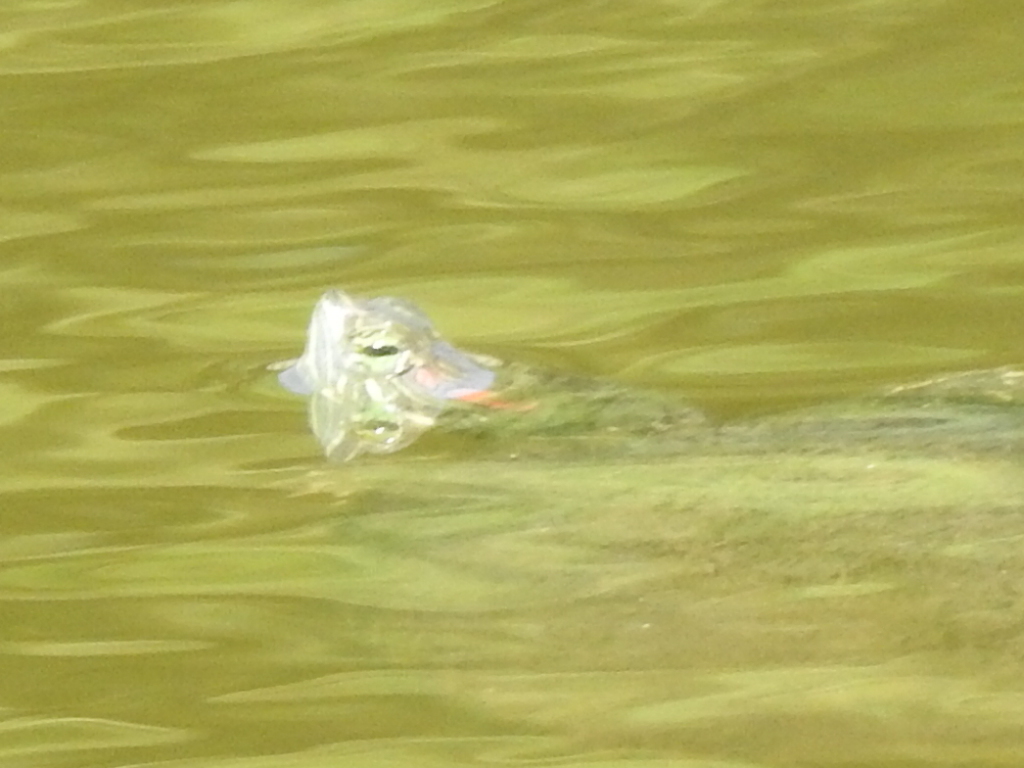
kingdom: Animalia
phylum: Chordata
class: Testudines
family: Emydidae
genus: Trachemys
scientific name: Trachemys scripta
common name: Slider
